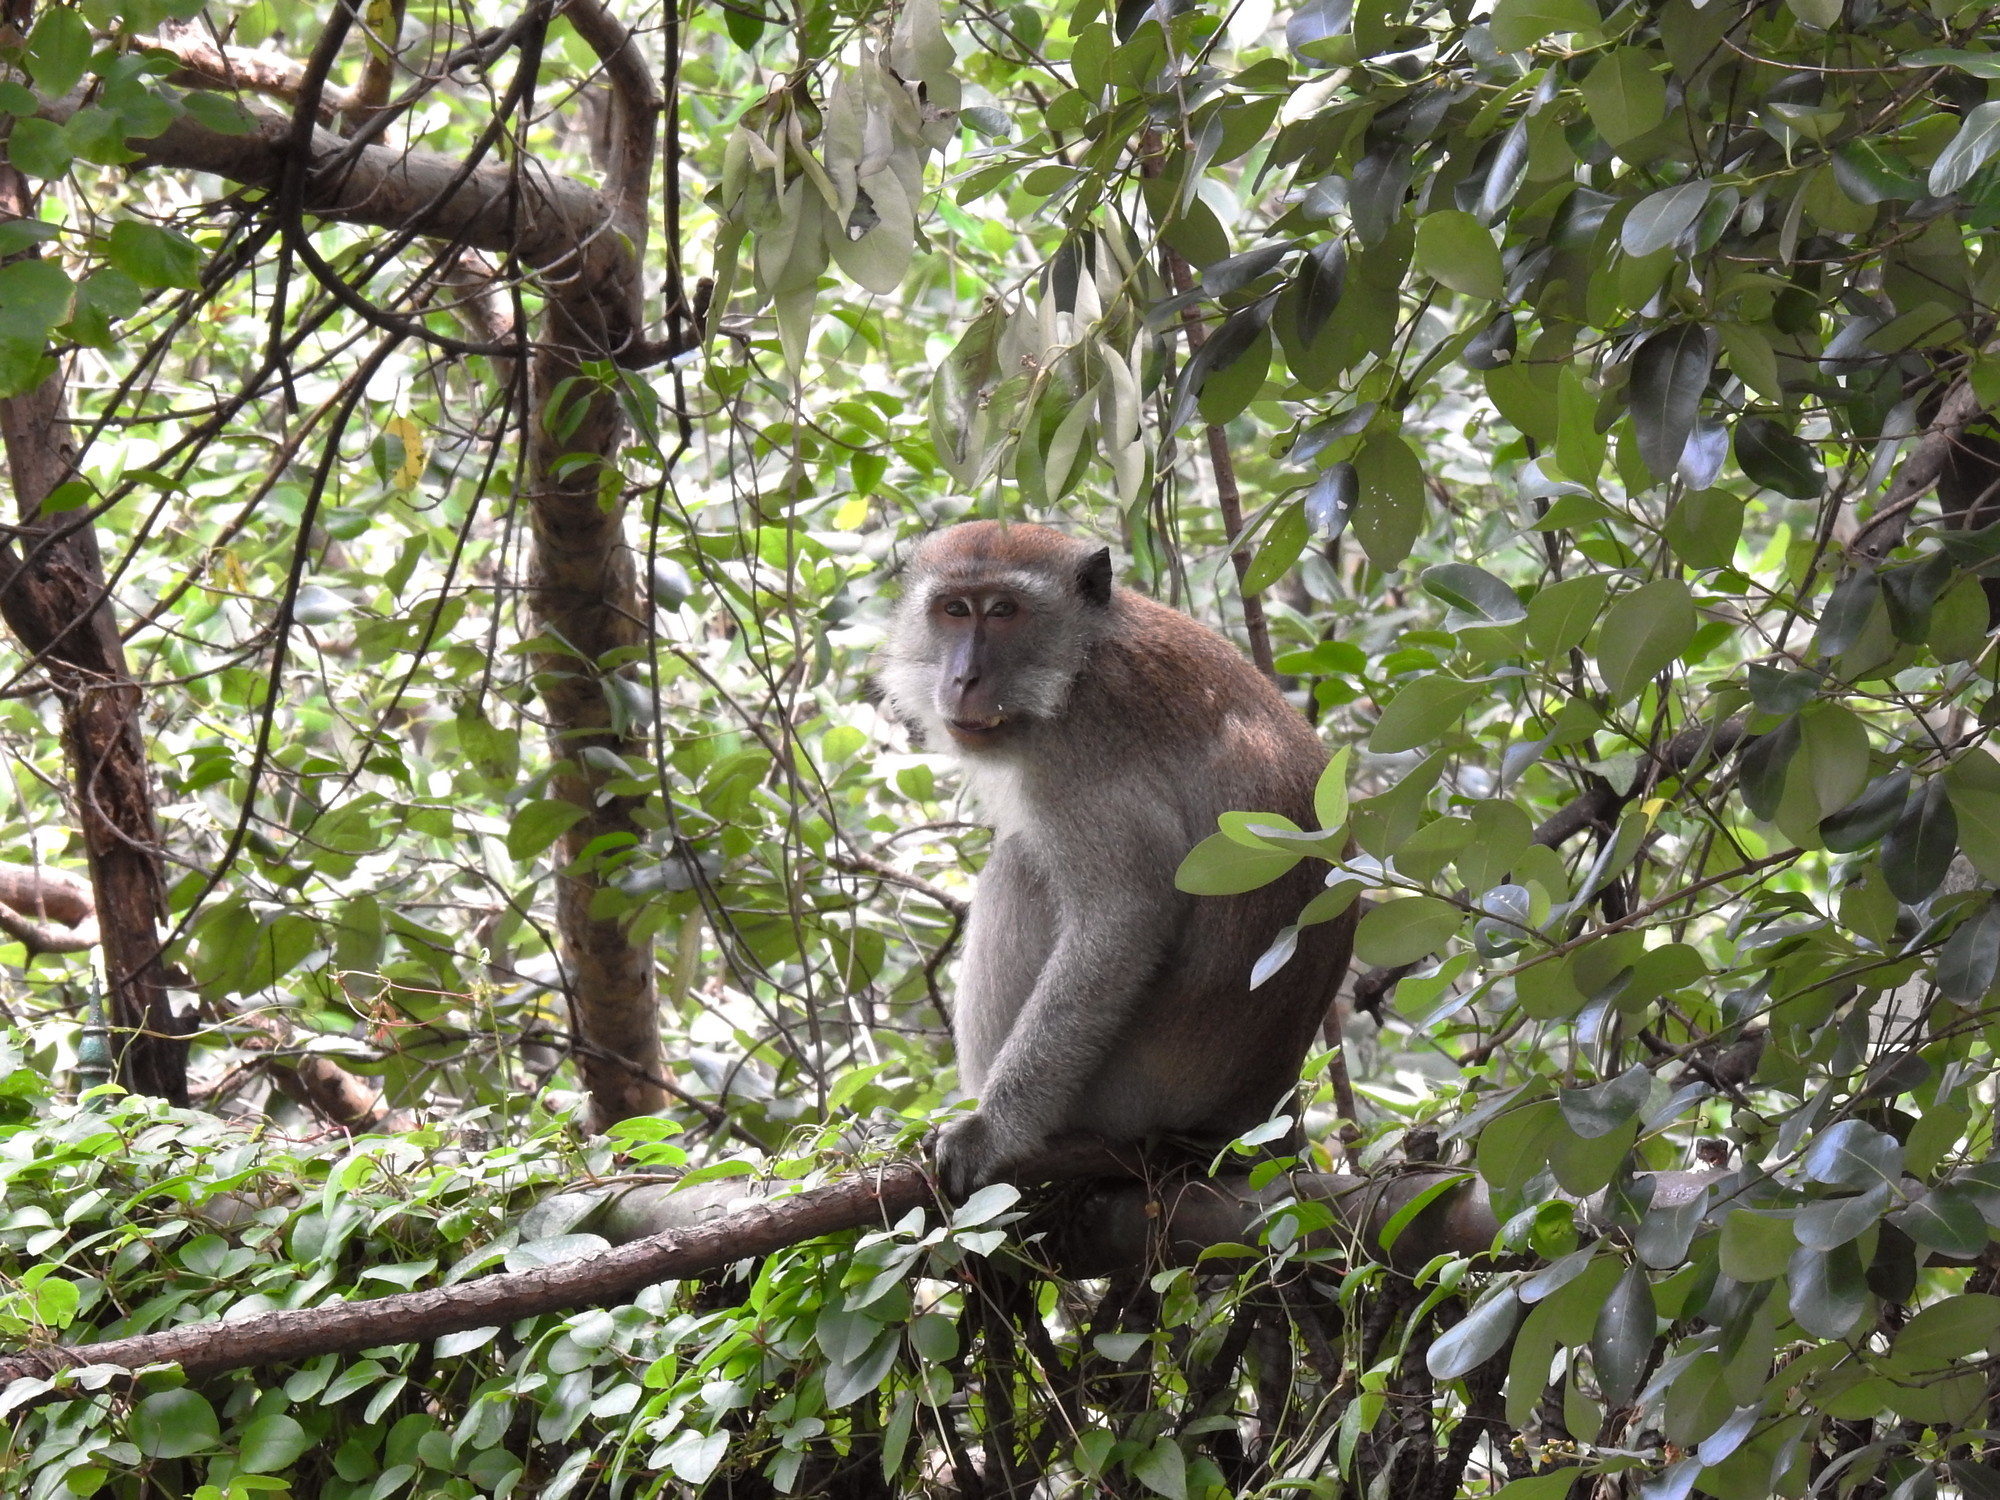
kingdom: Animalia
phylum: Chordata
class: Mammalia
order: Primates
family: Cercopithecidae
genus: Macaca
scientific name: Macaca fascicularis
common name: Crab-eating macaque
